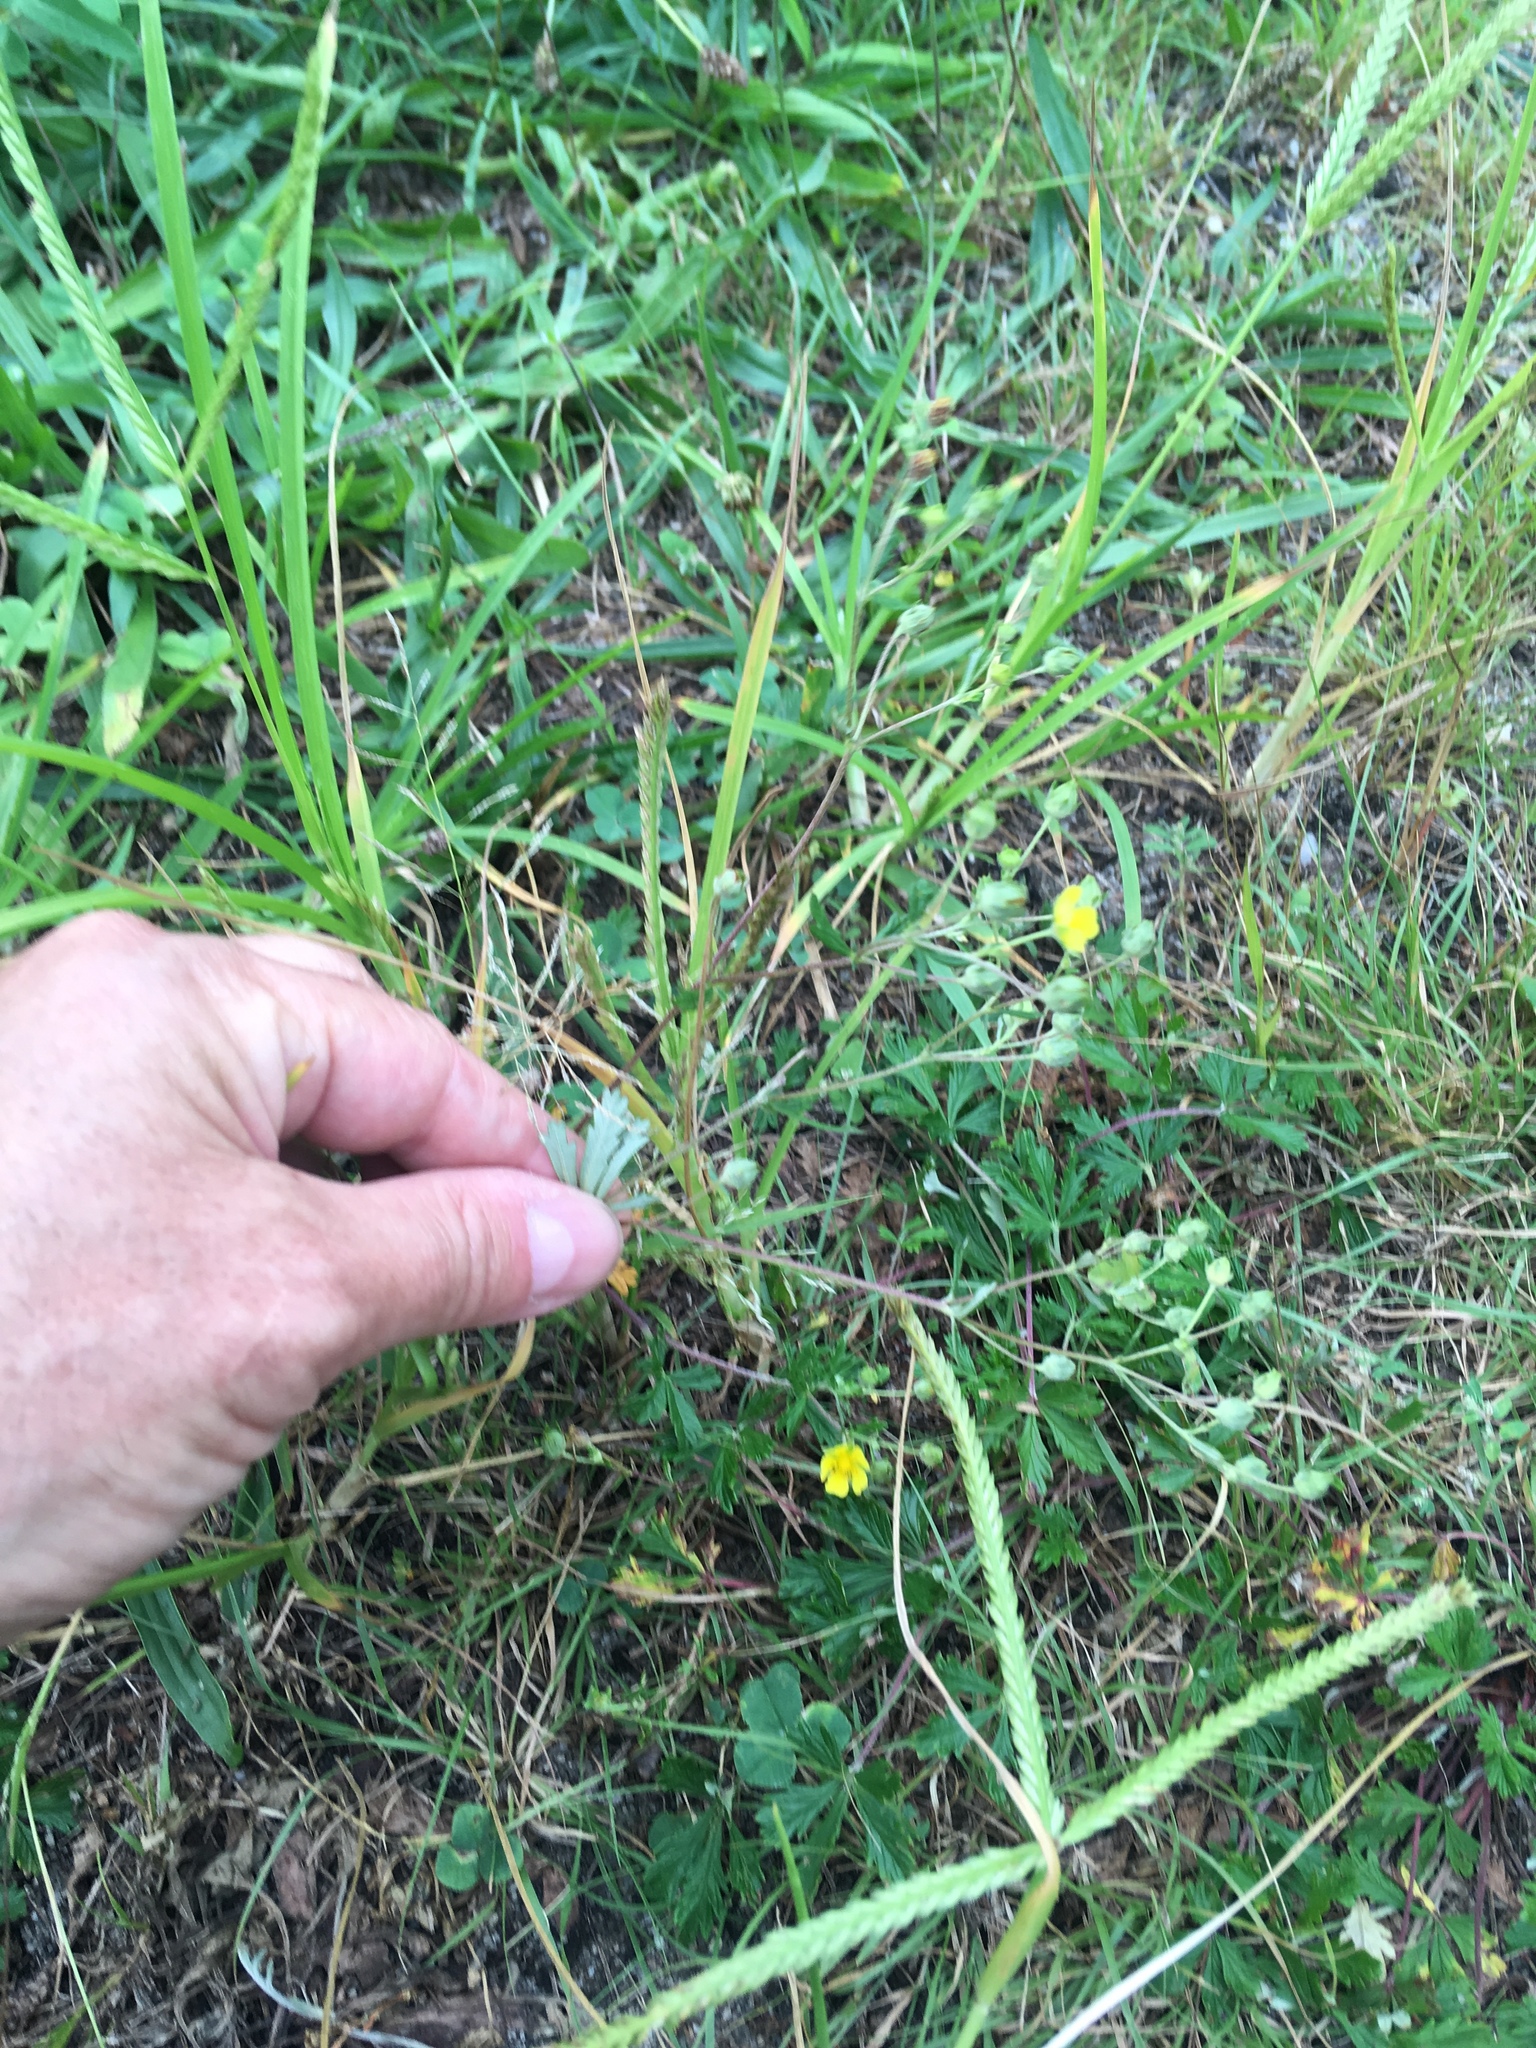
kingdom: Plantae
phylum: Tracheophyta
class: Magnoliopsida
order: Rosales
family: Rosaceae
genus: Potentilla
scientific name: Potentilla argentea
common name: Hoary cinquefoil
